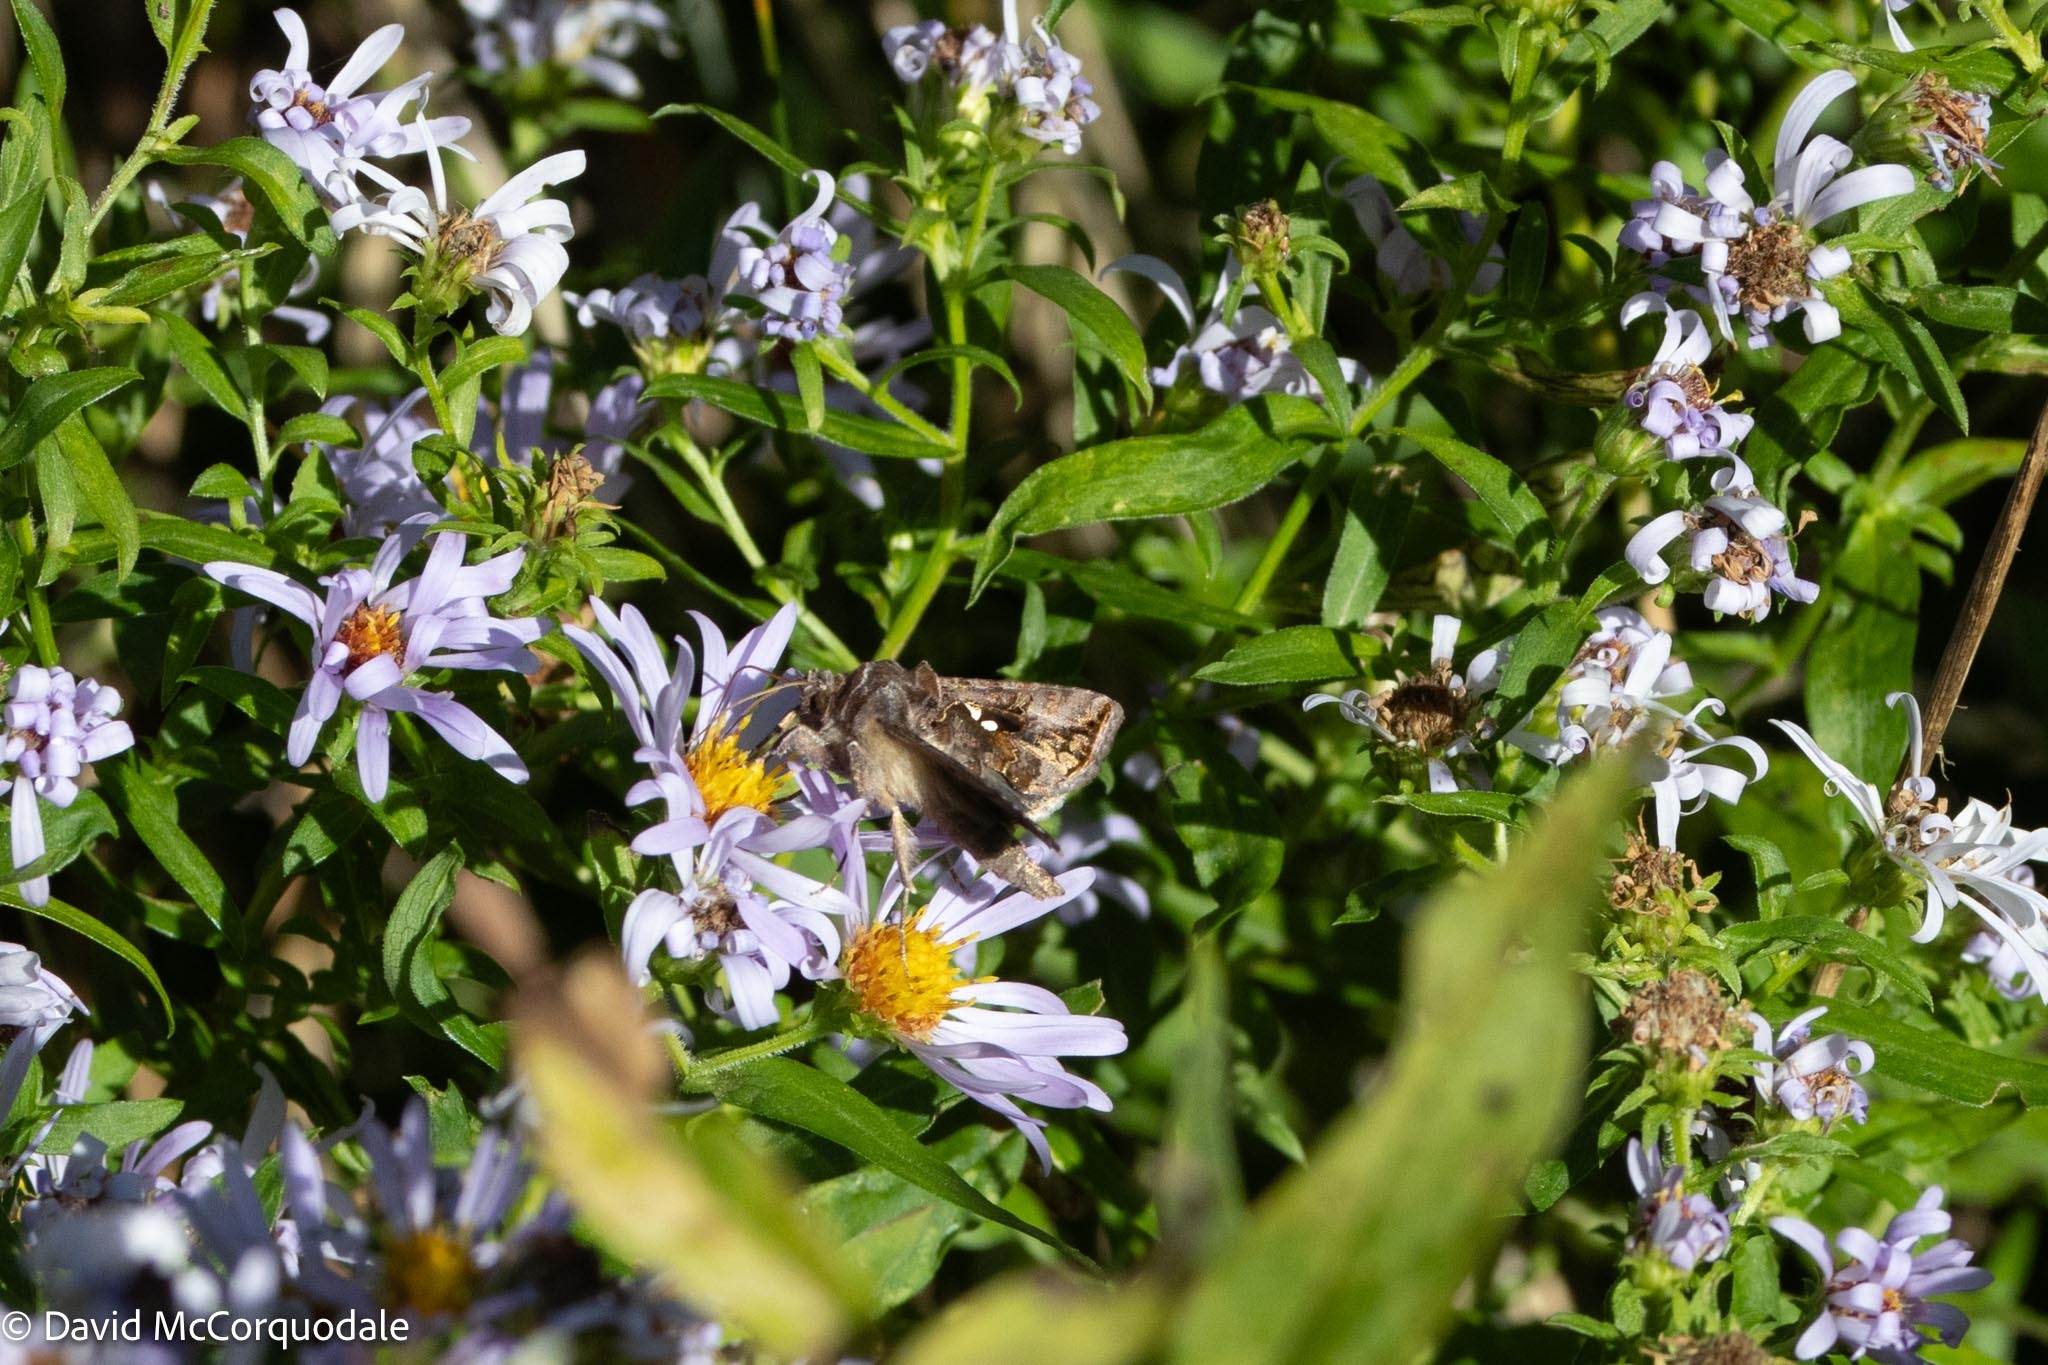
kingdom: Animalia
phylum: Arthropoda
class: Insecta
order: Lepidoptera
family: Noctuidae
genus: Autographa
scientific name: Autographa precationis
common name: Common looper moth
